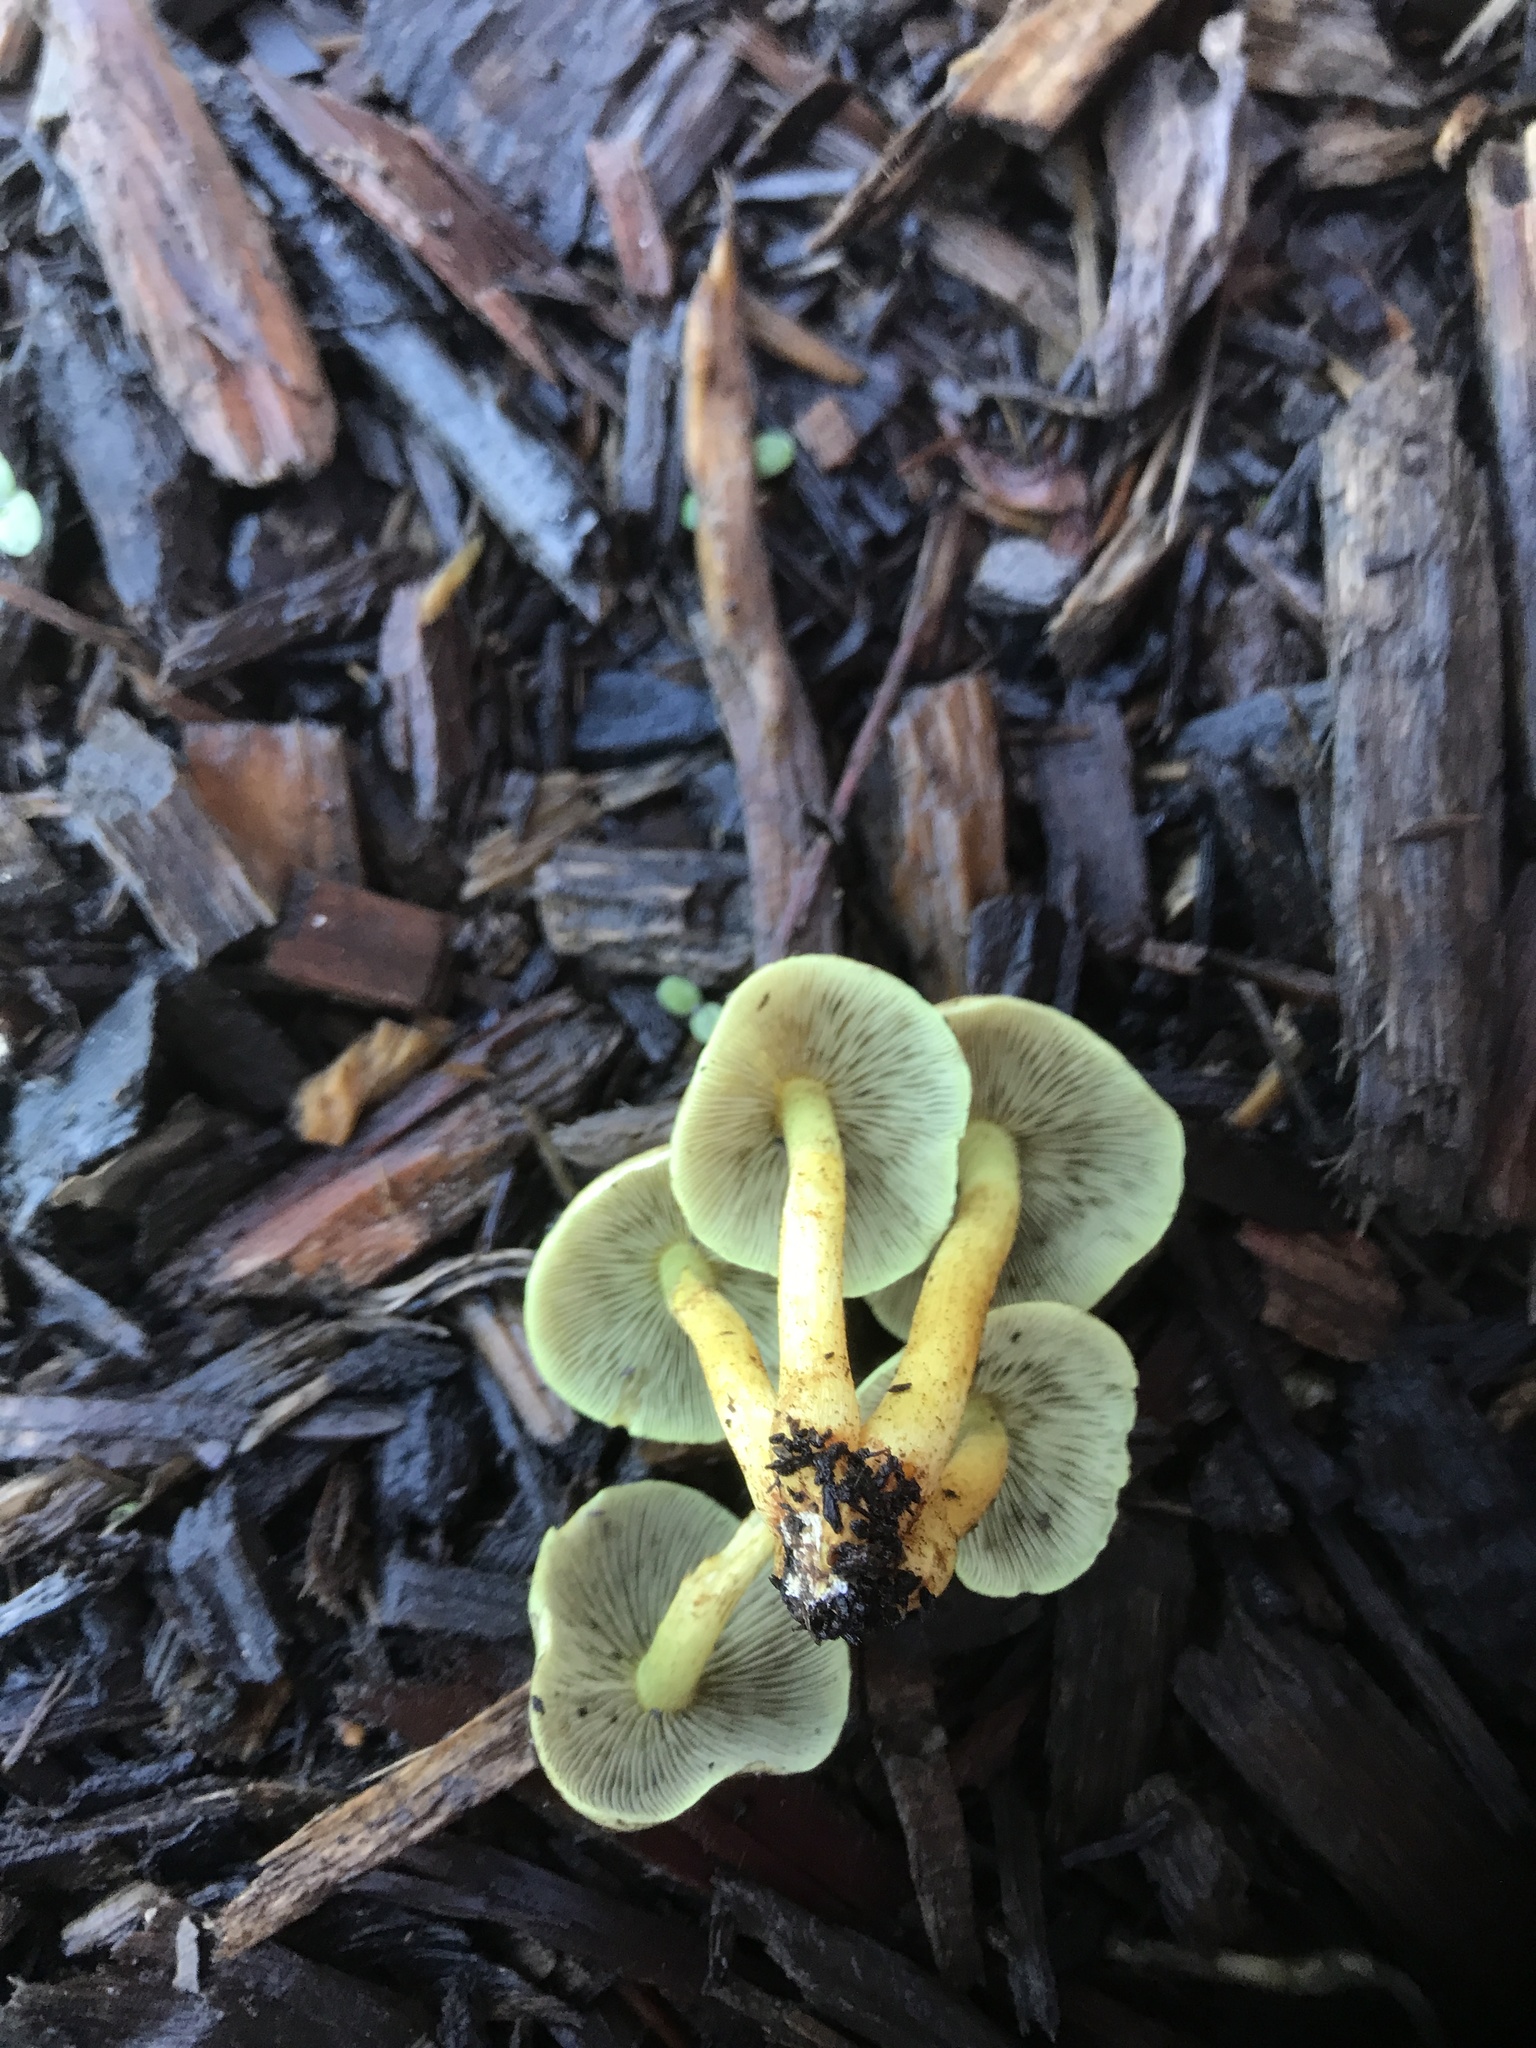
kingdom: Fungi
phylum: Basidiomycota
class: Agaricomycetes
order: Agaricales
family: Strophariaceae
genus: Hypholoma
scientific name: Hypholoma fasciculare
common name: Sulphur tuft
